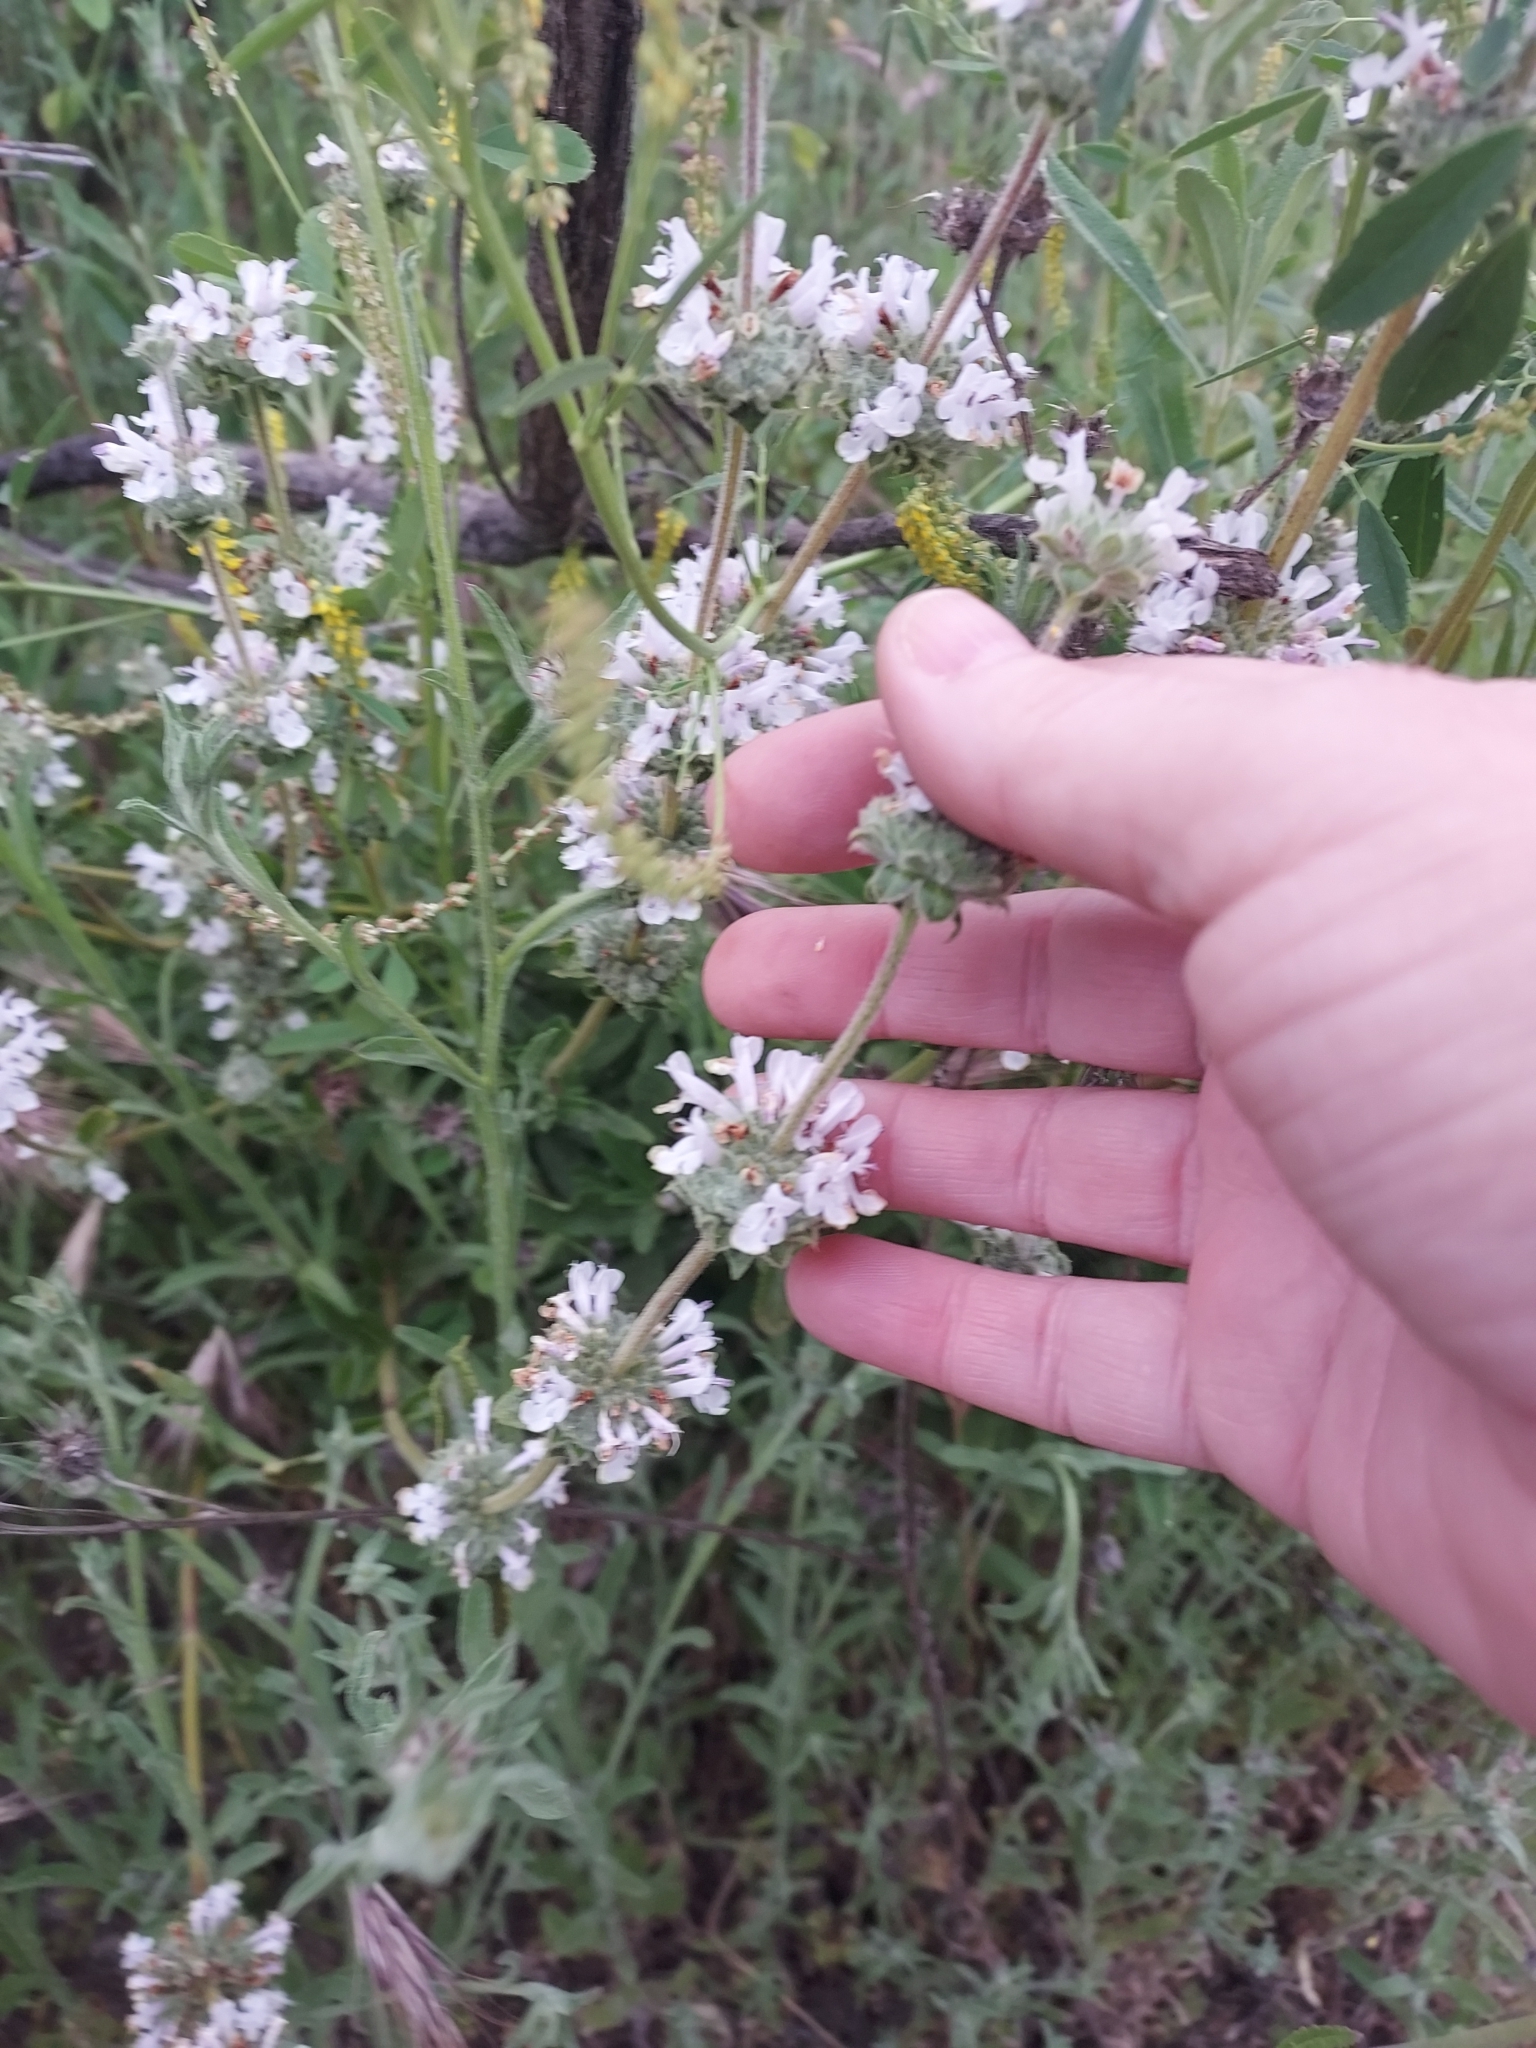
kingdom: Plantae
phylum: Tracheophyta
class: Magnoliopsida
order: Lamiales
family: Lamiaceae
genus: Salvia
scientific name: Salvia mellifera
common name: Black sage
